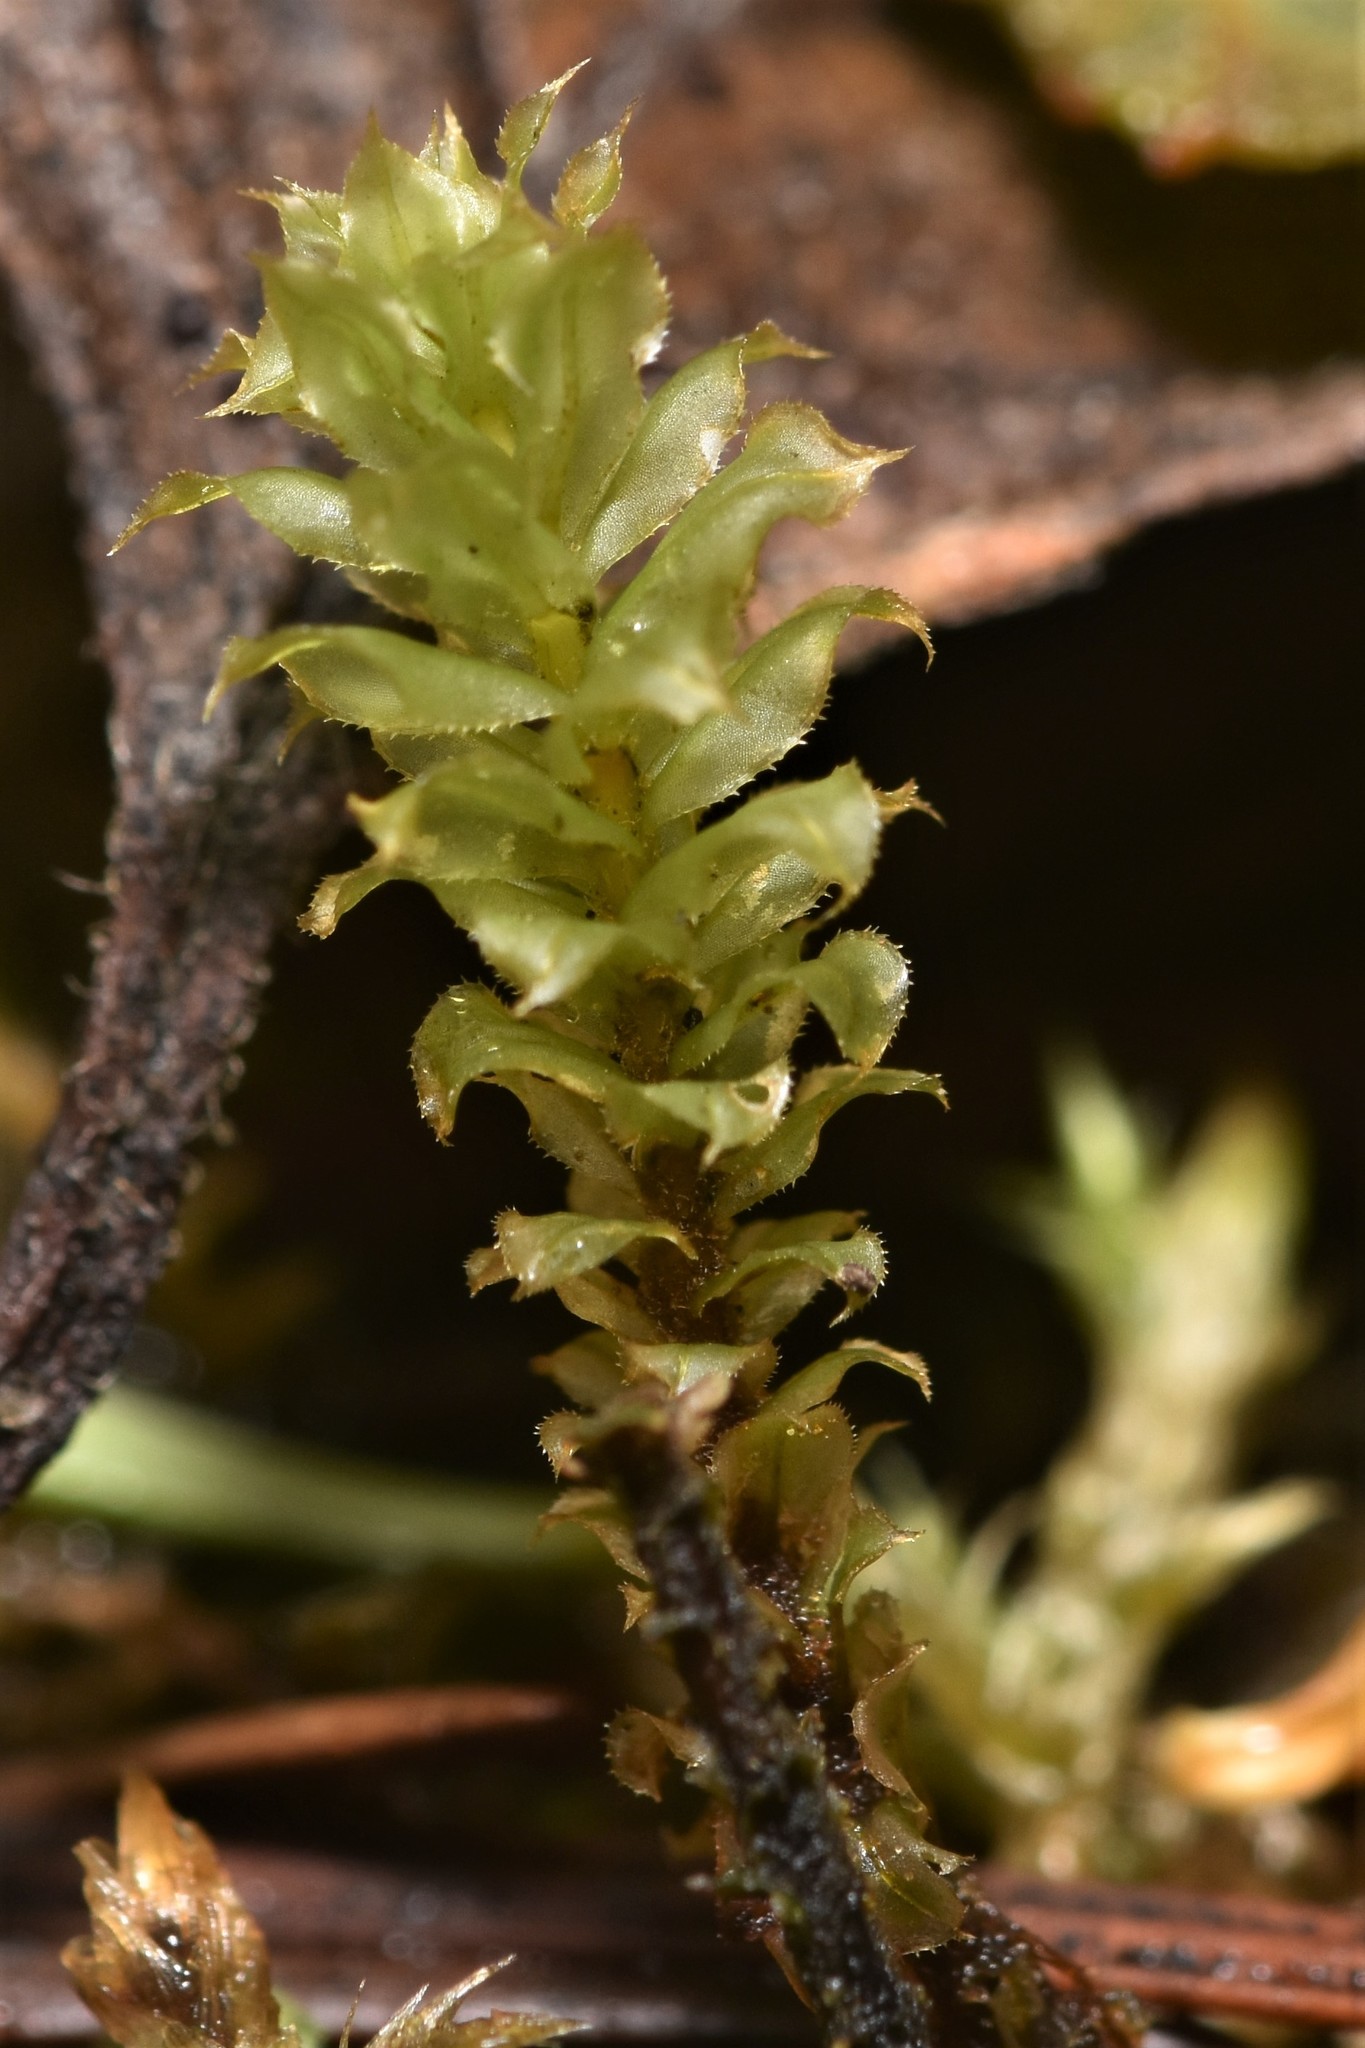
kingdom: Plantae
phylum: Bryophyta
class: Bryopsida
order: Bryales
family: Mniaceae
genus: Plagiomnium
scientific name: Plagiomnium venustum
